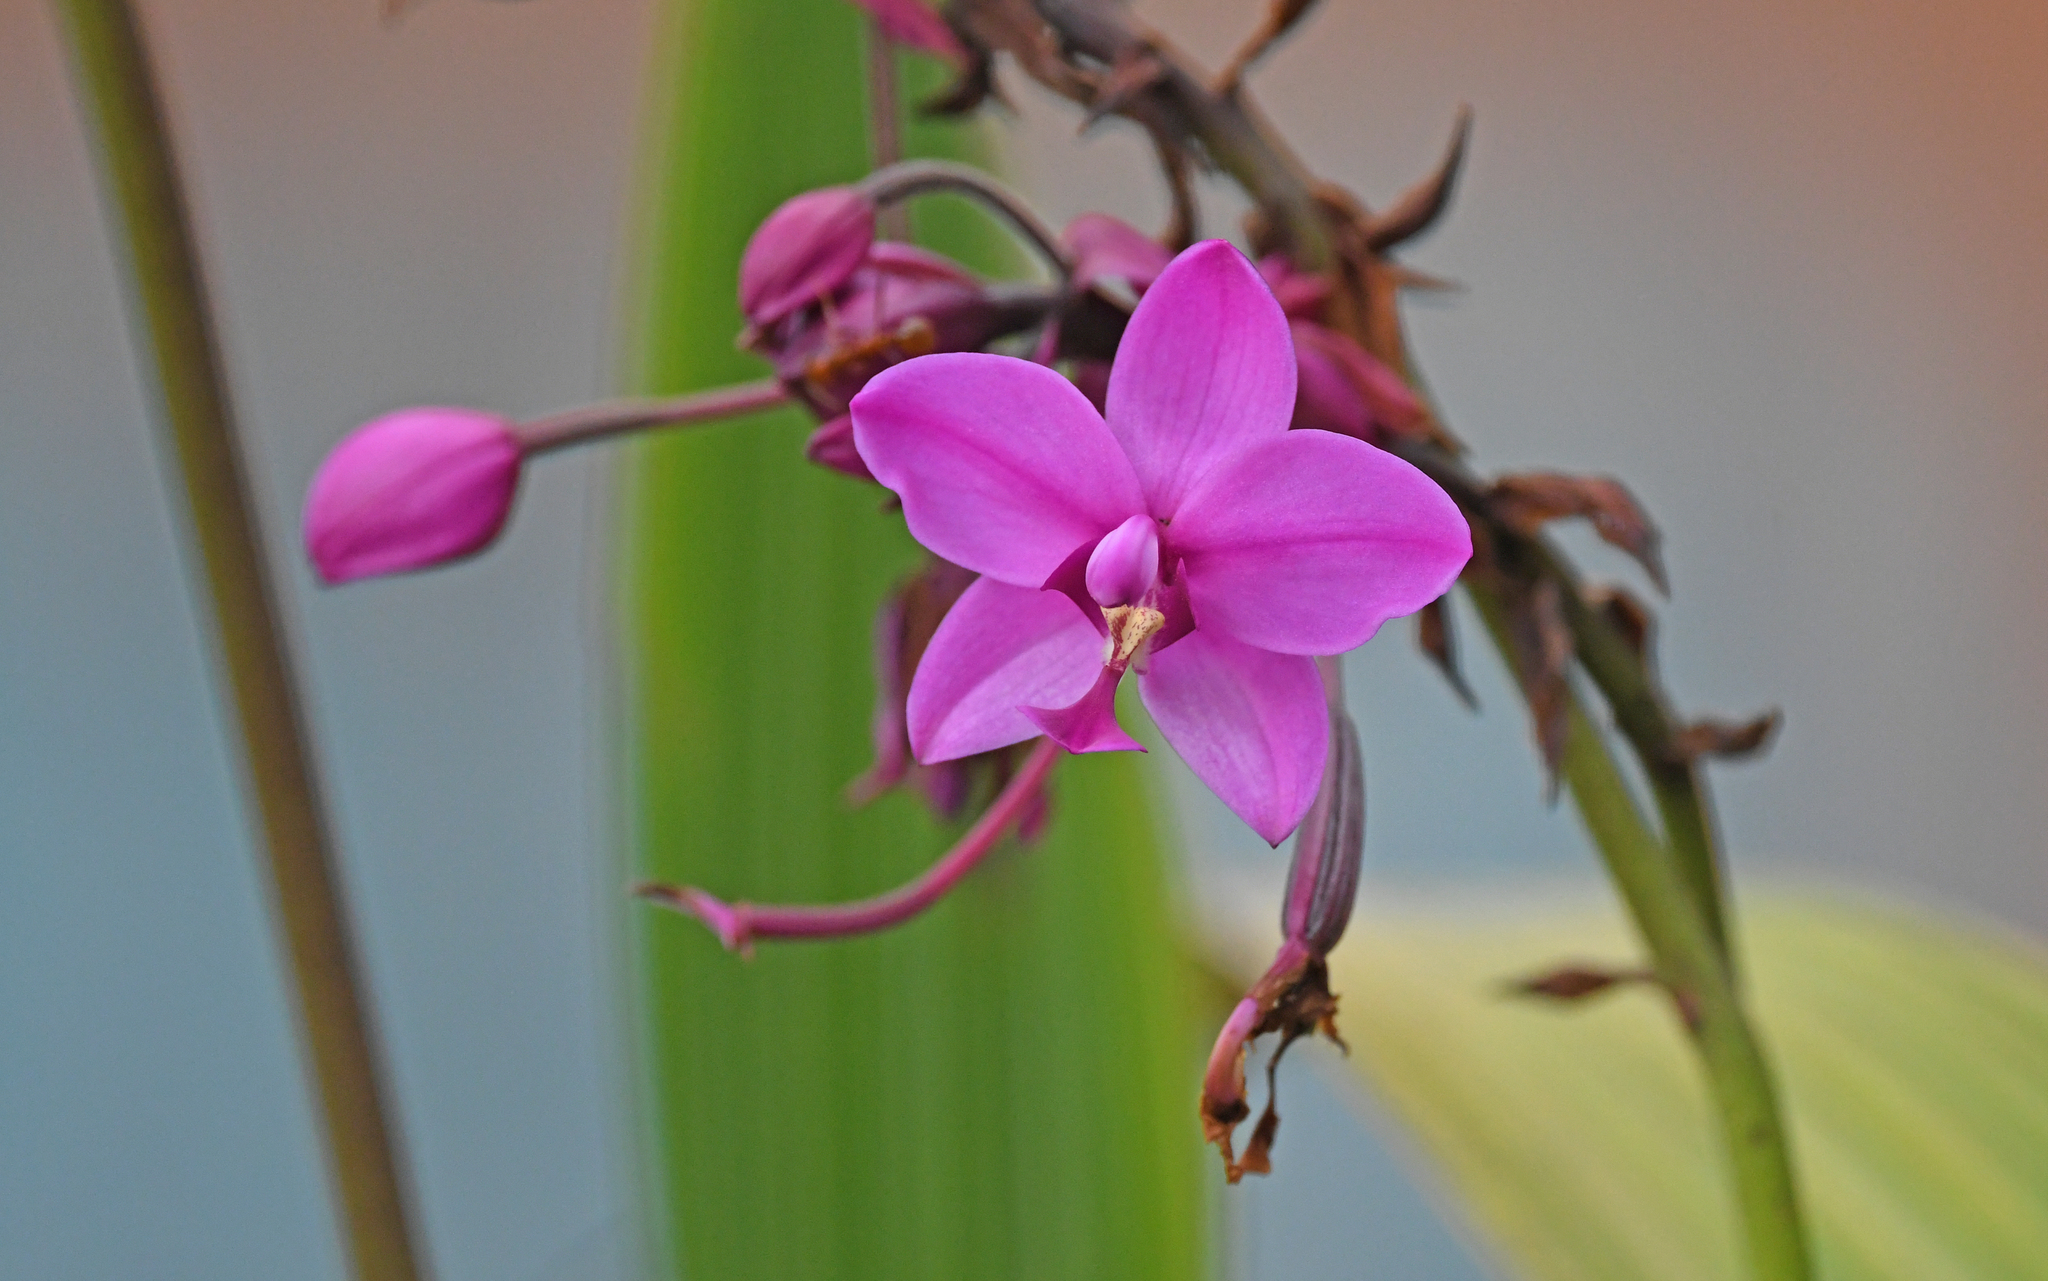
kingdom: Plantae
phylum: Tracheophyta
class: Liliopsida
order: Asparagales
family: Orchidaceae
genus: Spathoglottis
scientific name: Spathoglottis plicata
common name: Philippine ground orchid
